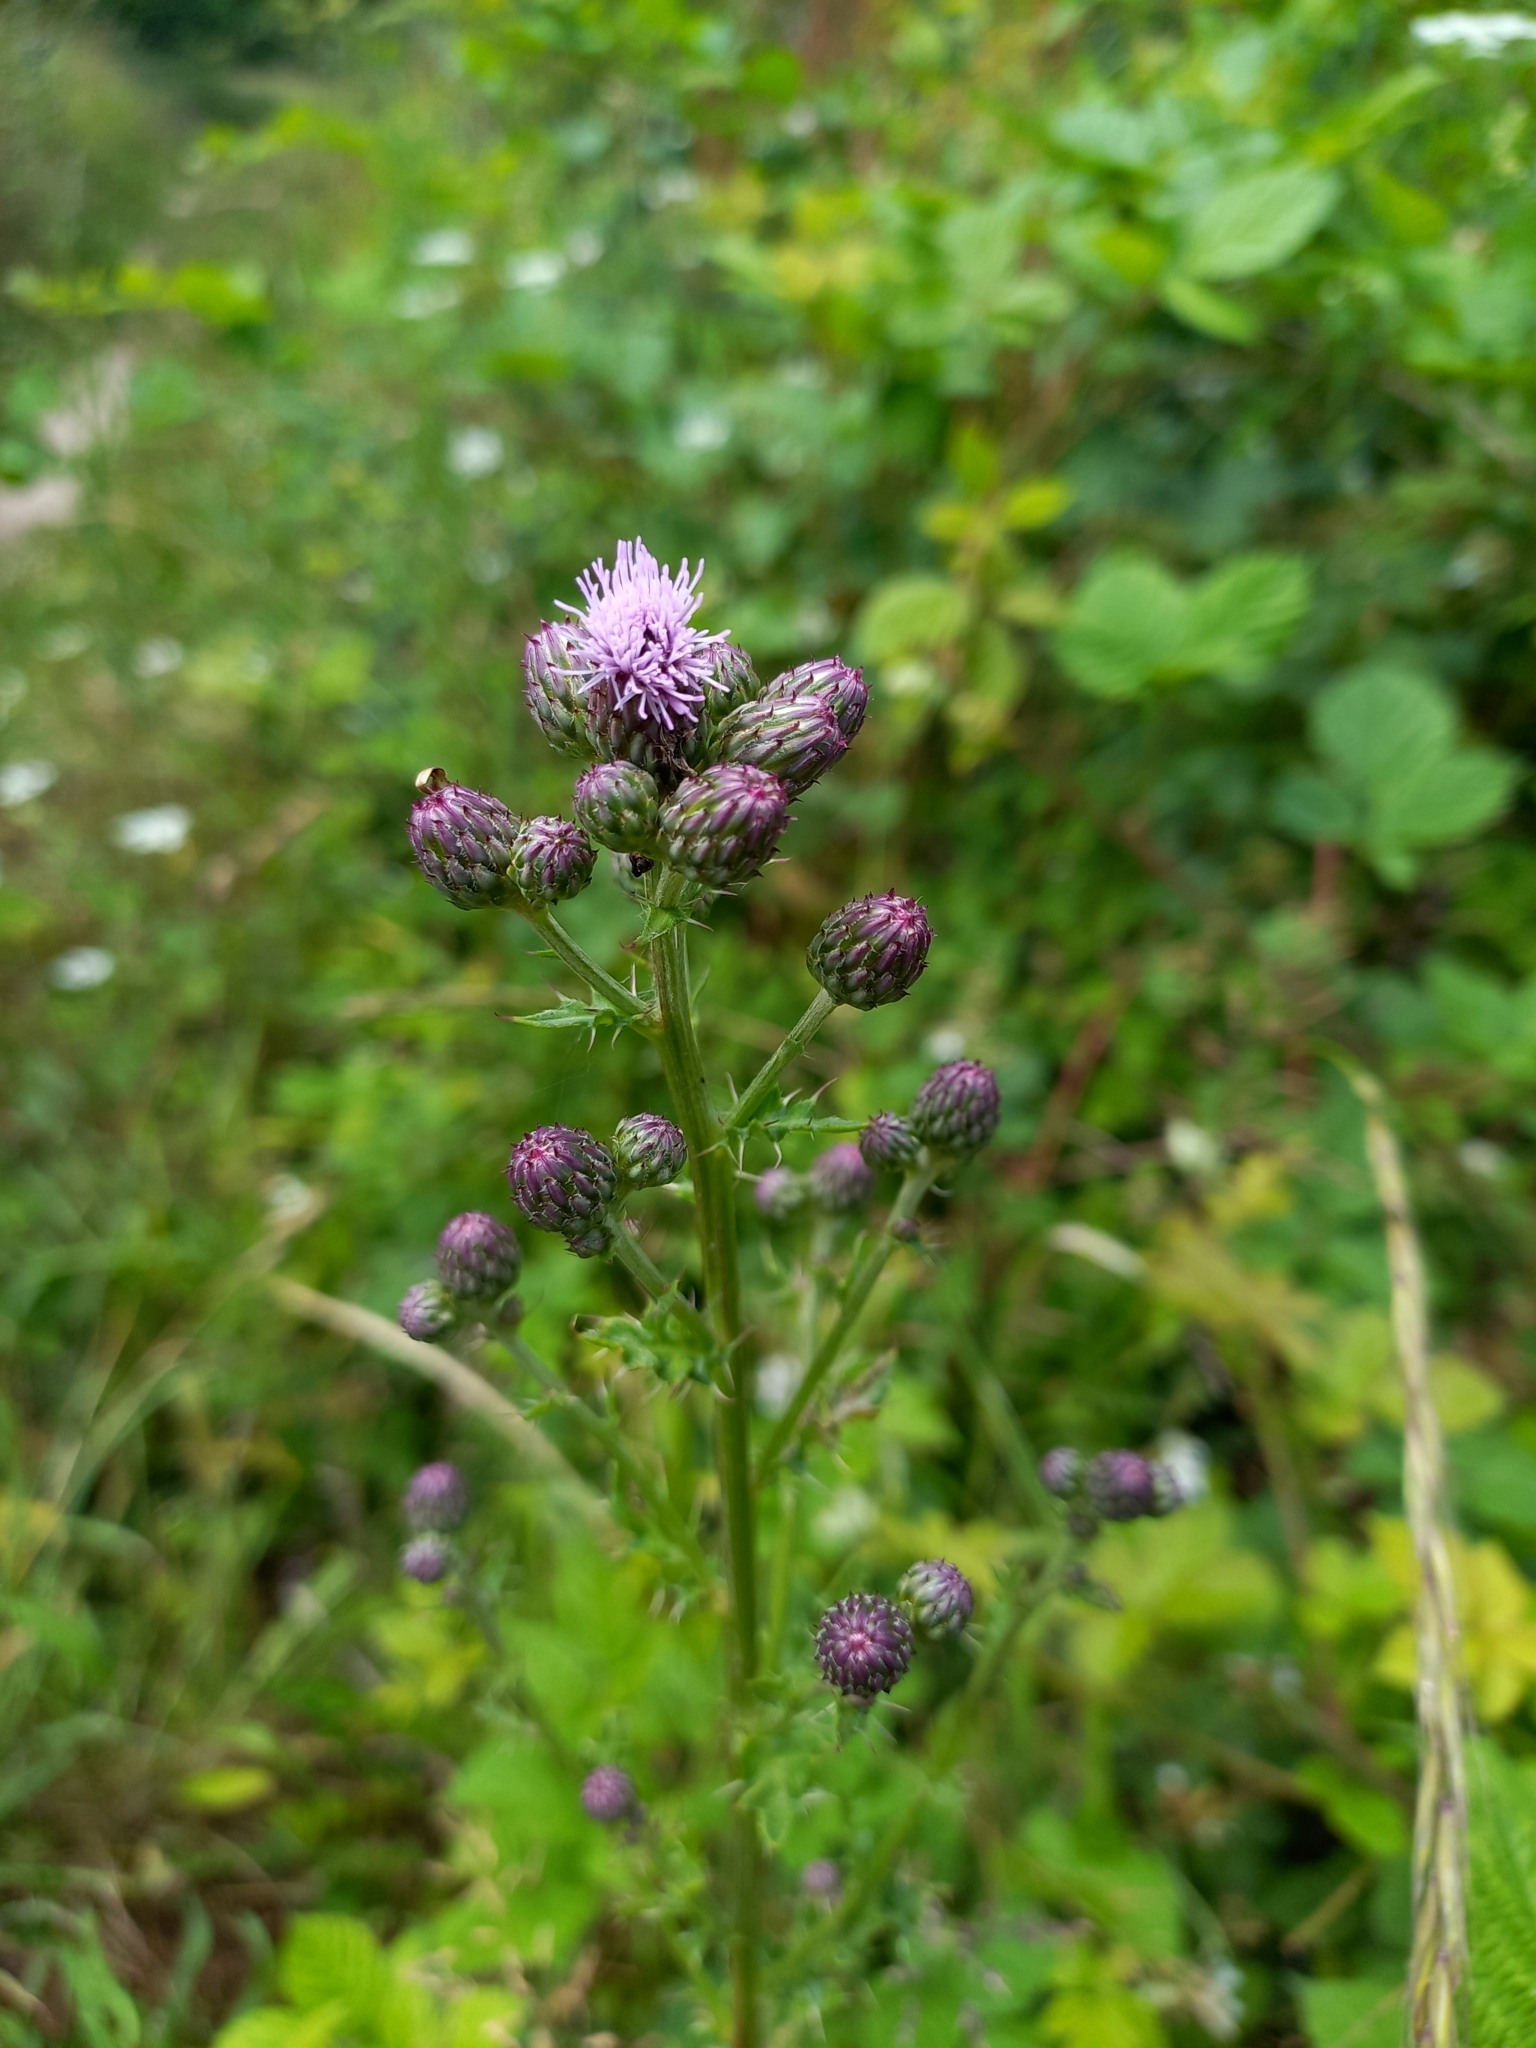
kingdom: Plantae
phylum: Tracheophyta
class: Magnoliopsida
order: Asterales
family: Asteraceae
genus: Cirsium
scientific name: Cirsium arvense
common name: Creeping thistle
